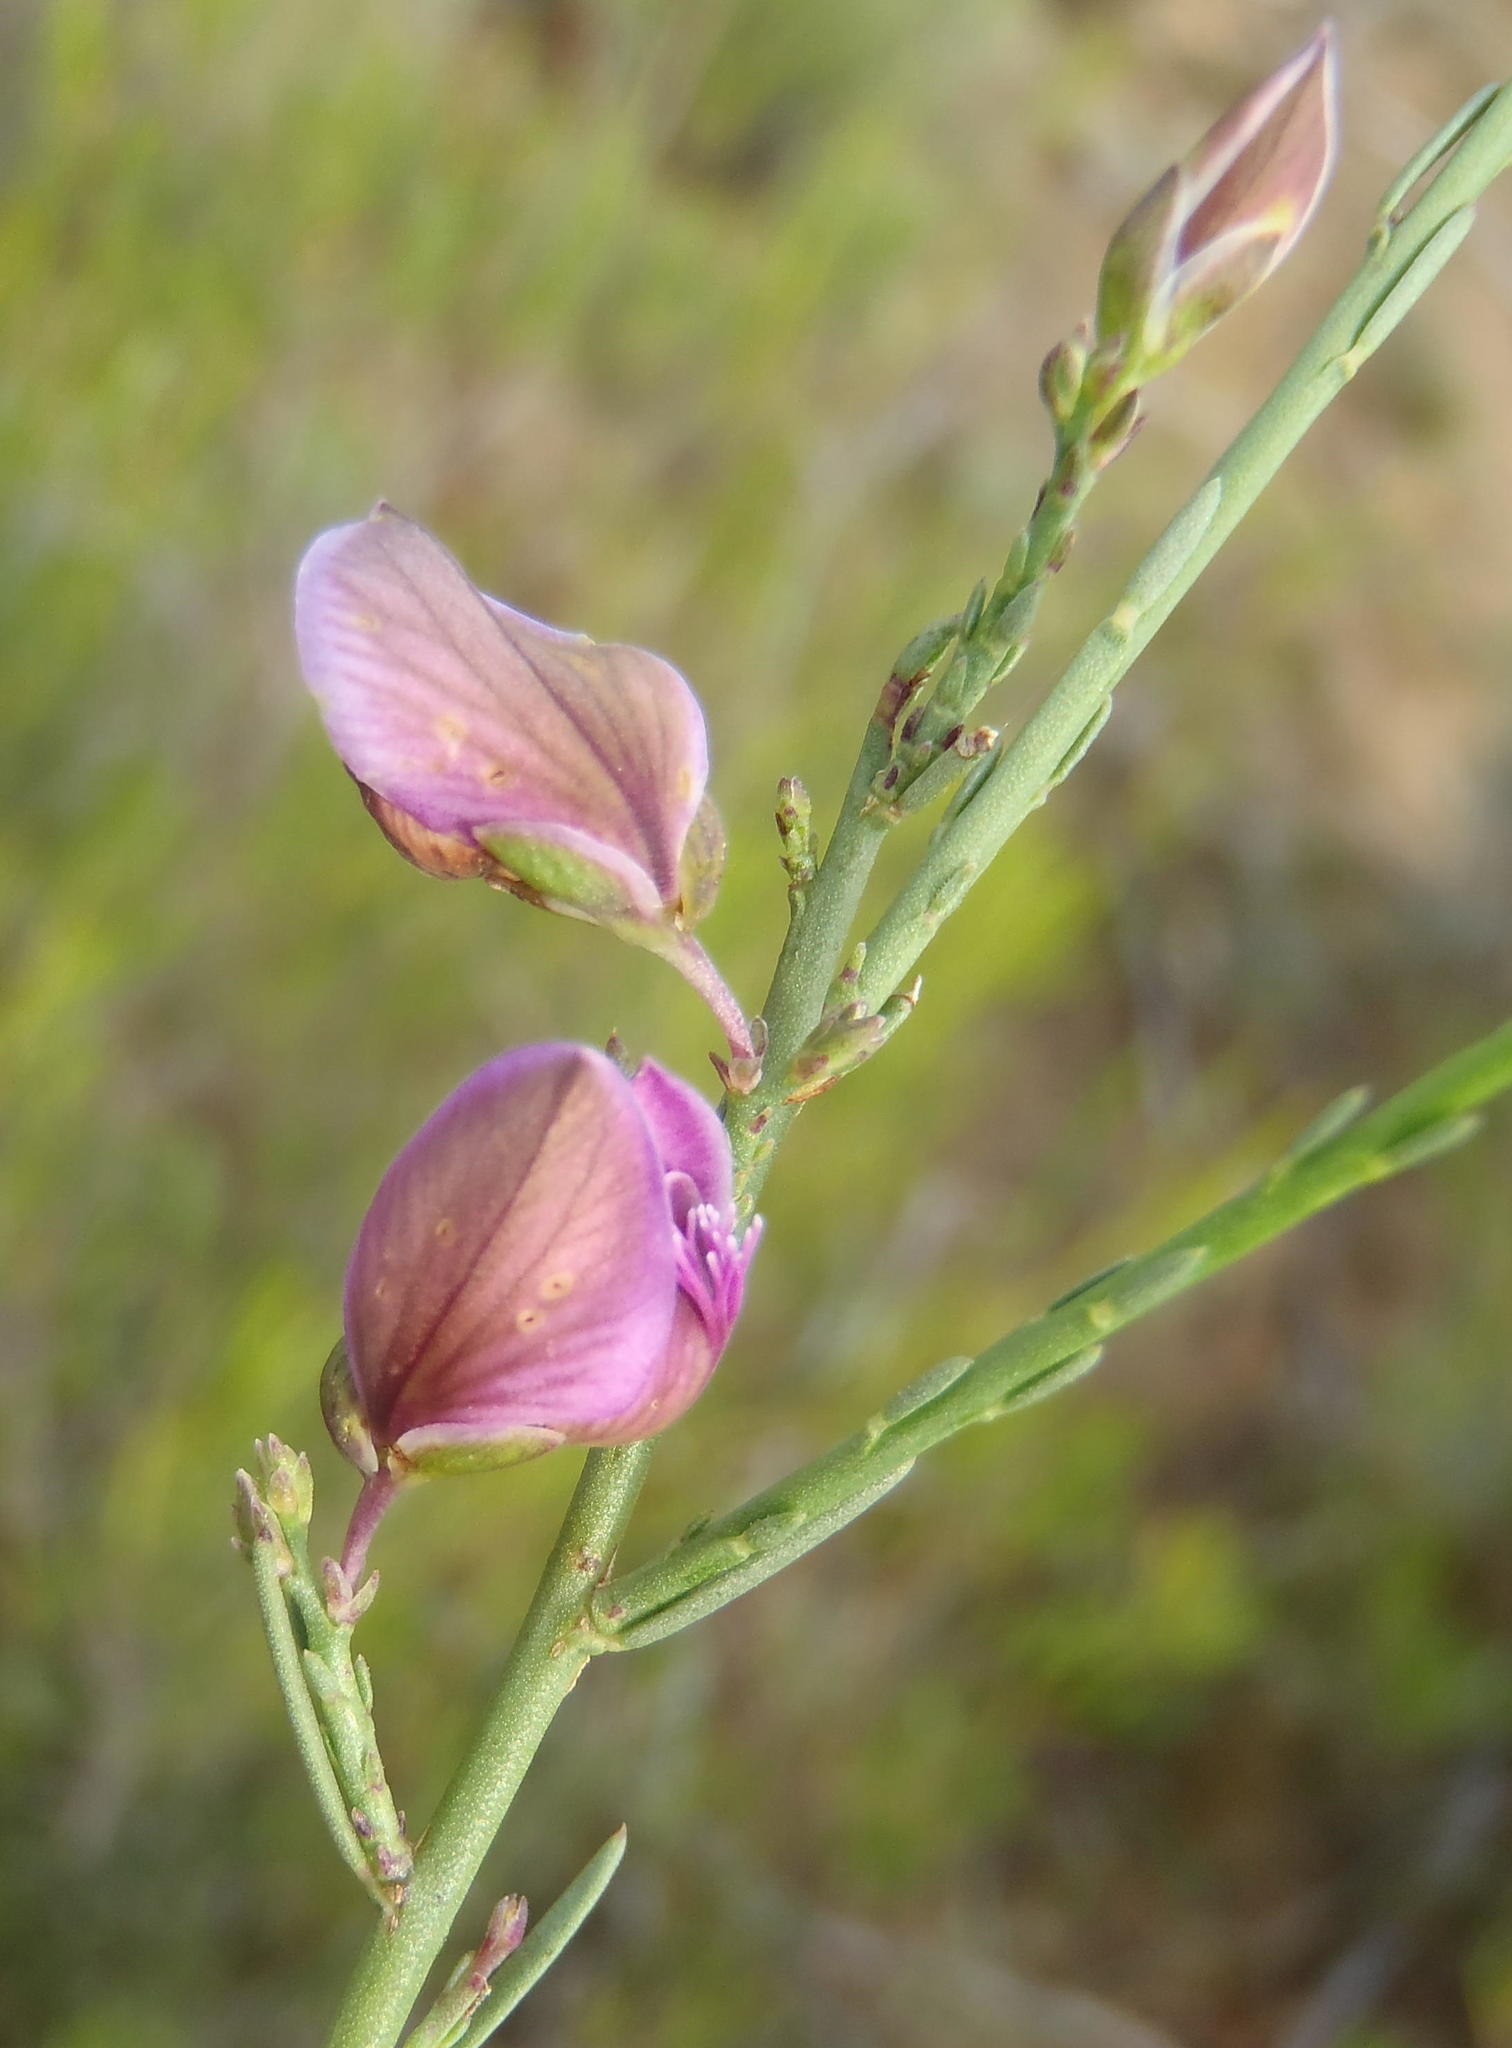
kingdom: Plantae
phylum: Tracheophyta
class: Magnoliopsida
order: Fabales
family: Polygalaceae
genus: Polygala
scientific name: Polygala microlopha
